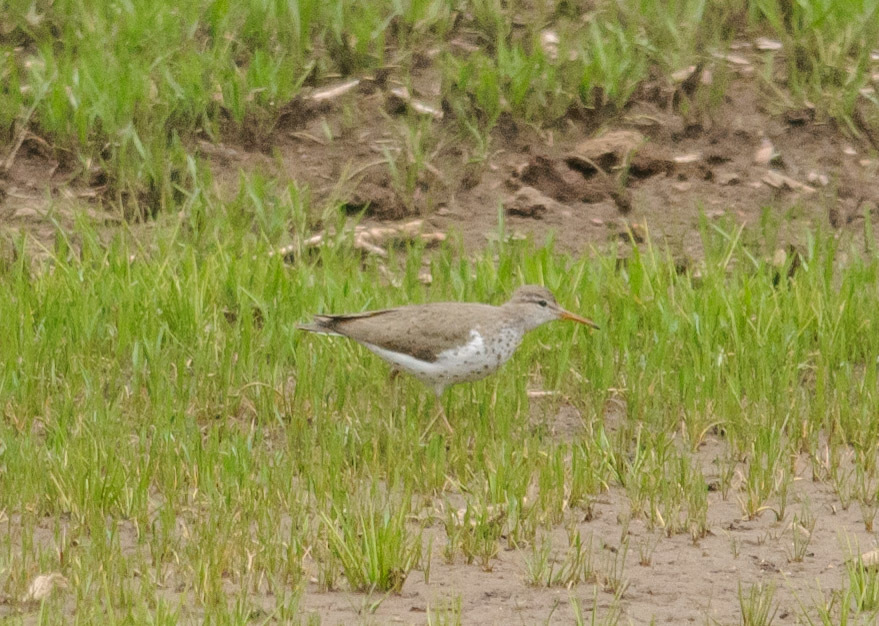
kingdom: Animalia
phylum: Chordata
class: Aves
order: Charadriiformes
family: Scolopacidae
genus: Actitis
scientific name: Actitis macularius
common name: Spotted sandpiper
